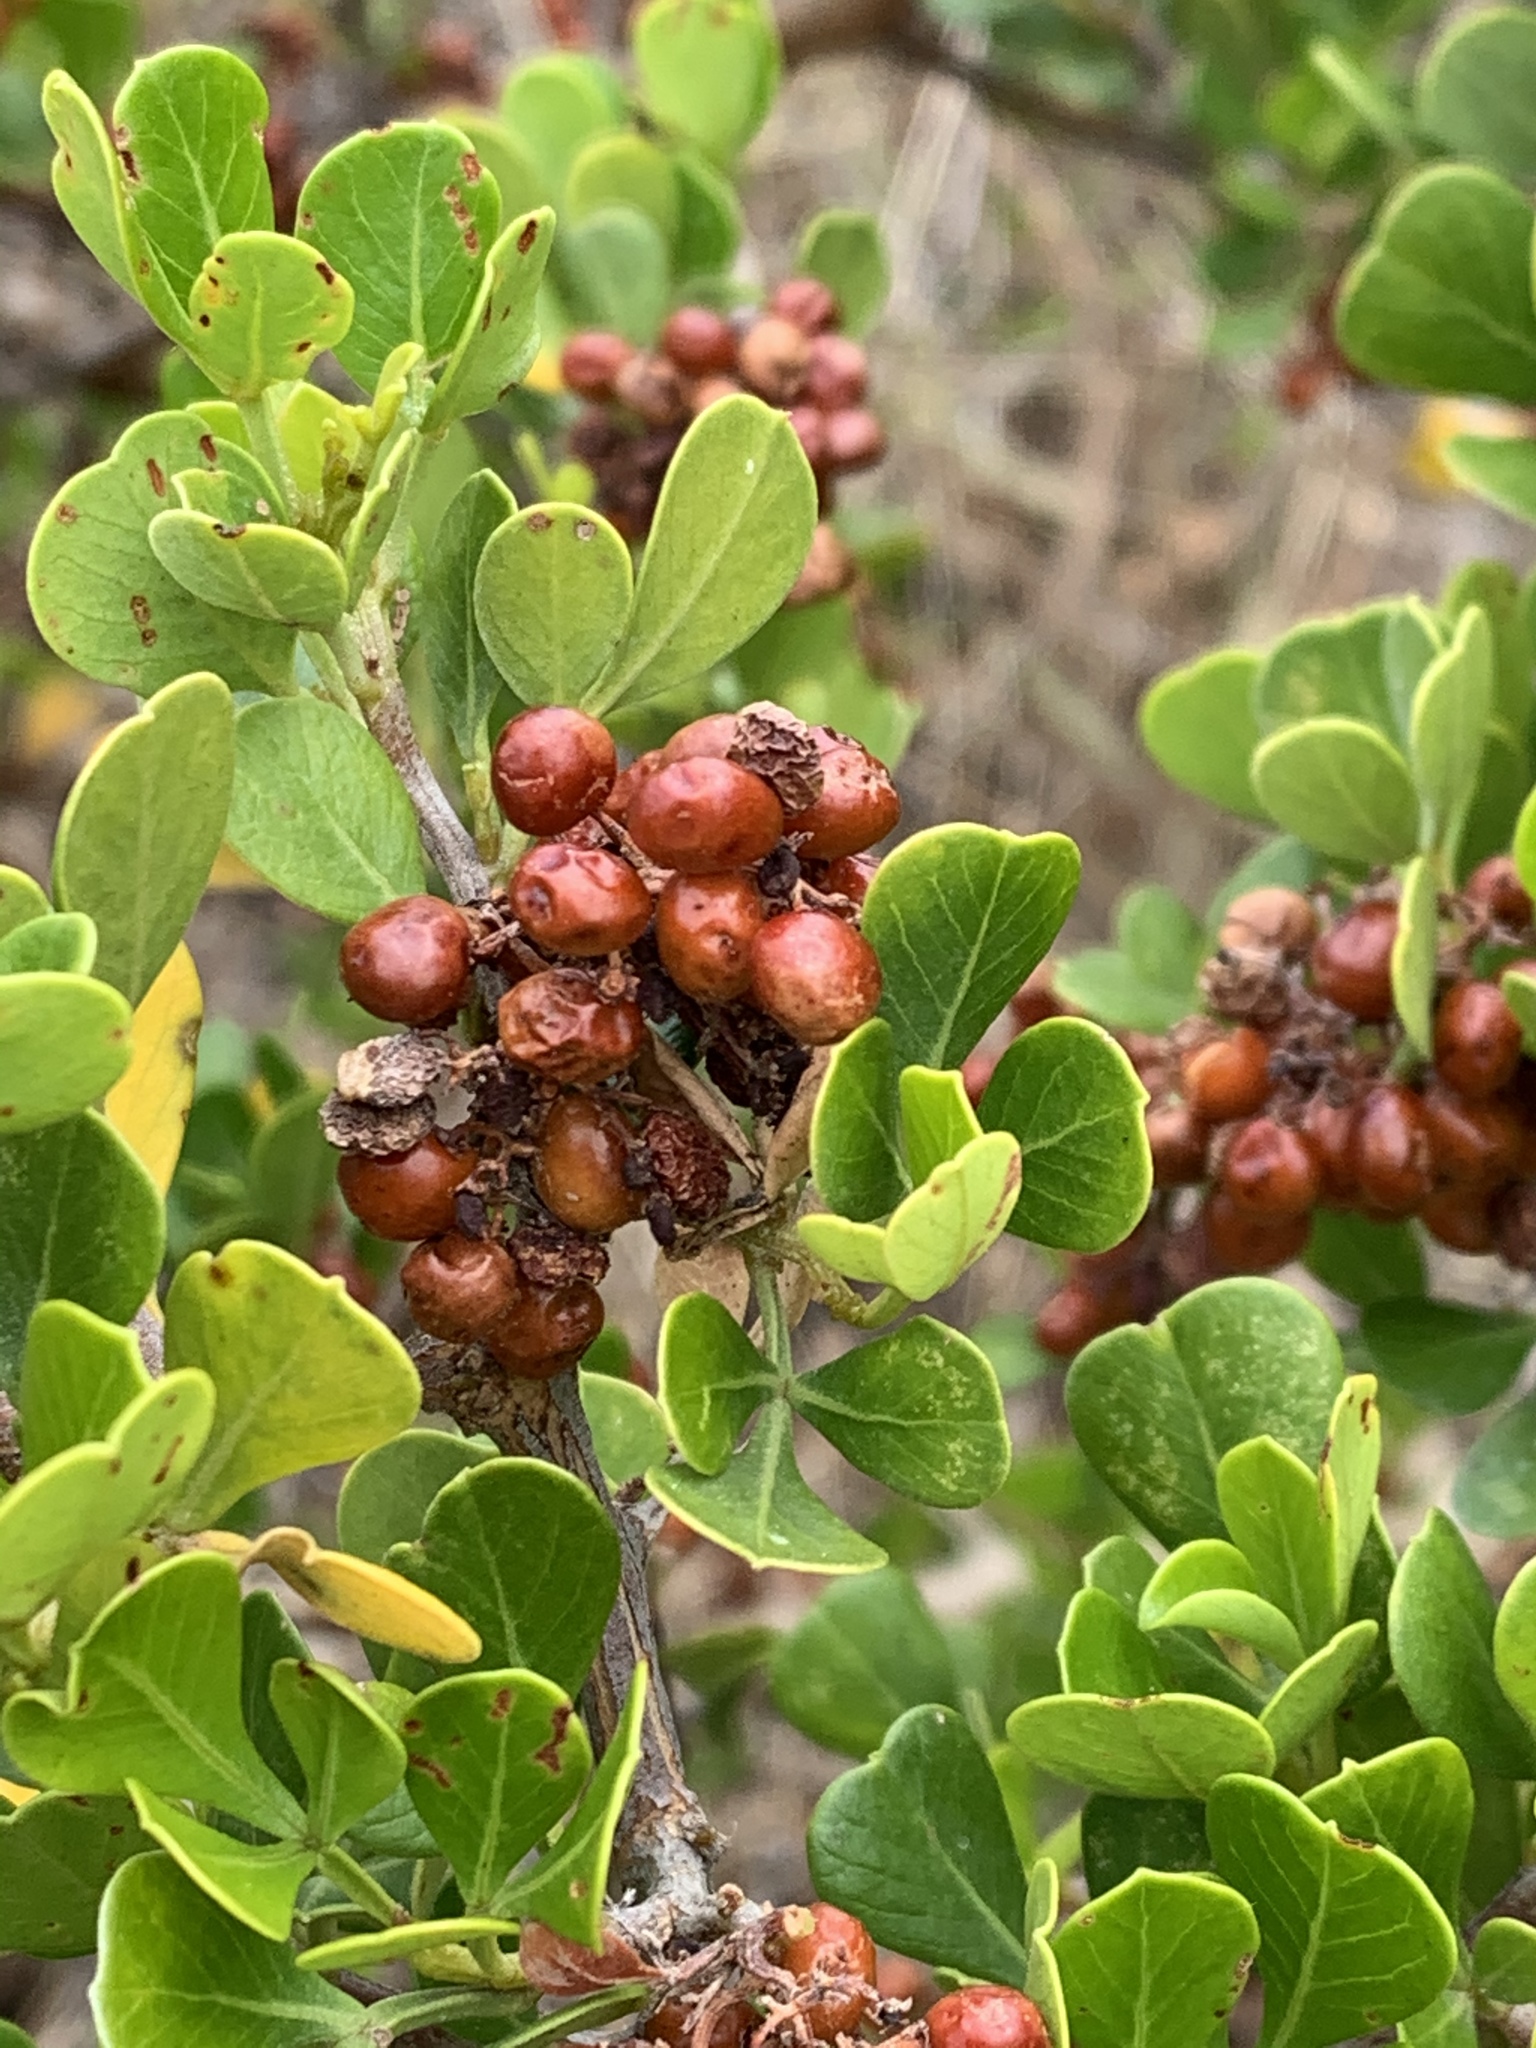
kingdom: Plantae
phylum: Tracheophyta
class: Magnoliopsida
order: Sapindales
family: Anacardiaceae
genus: Searsia
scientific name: Searsia glauca
